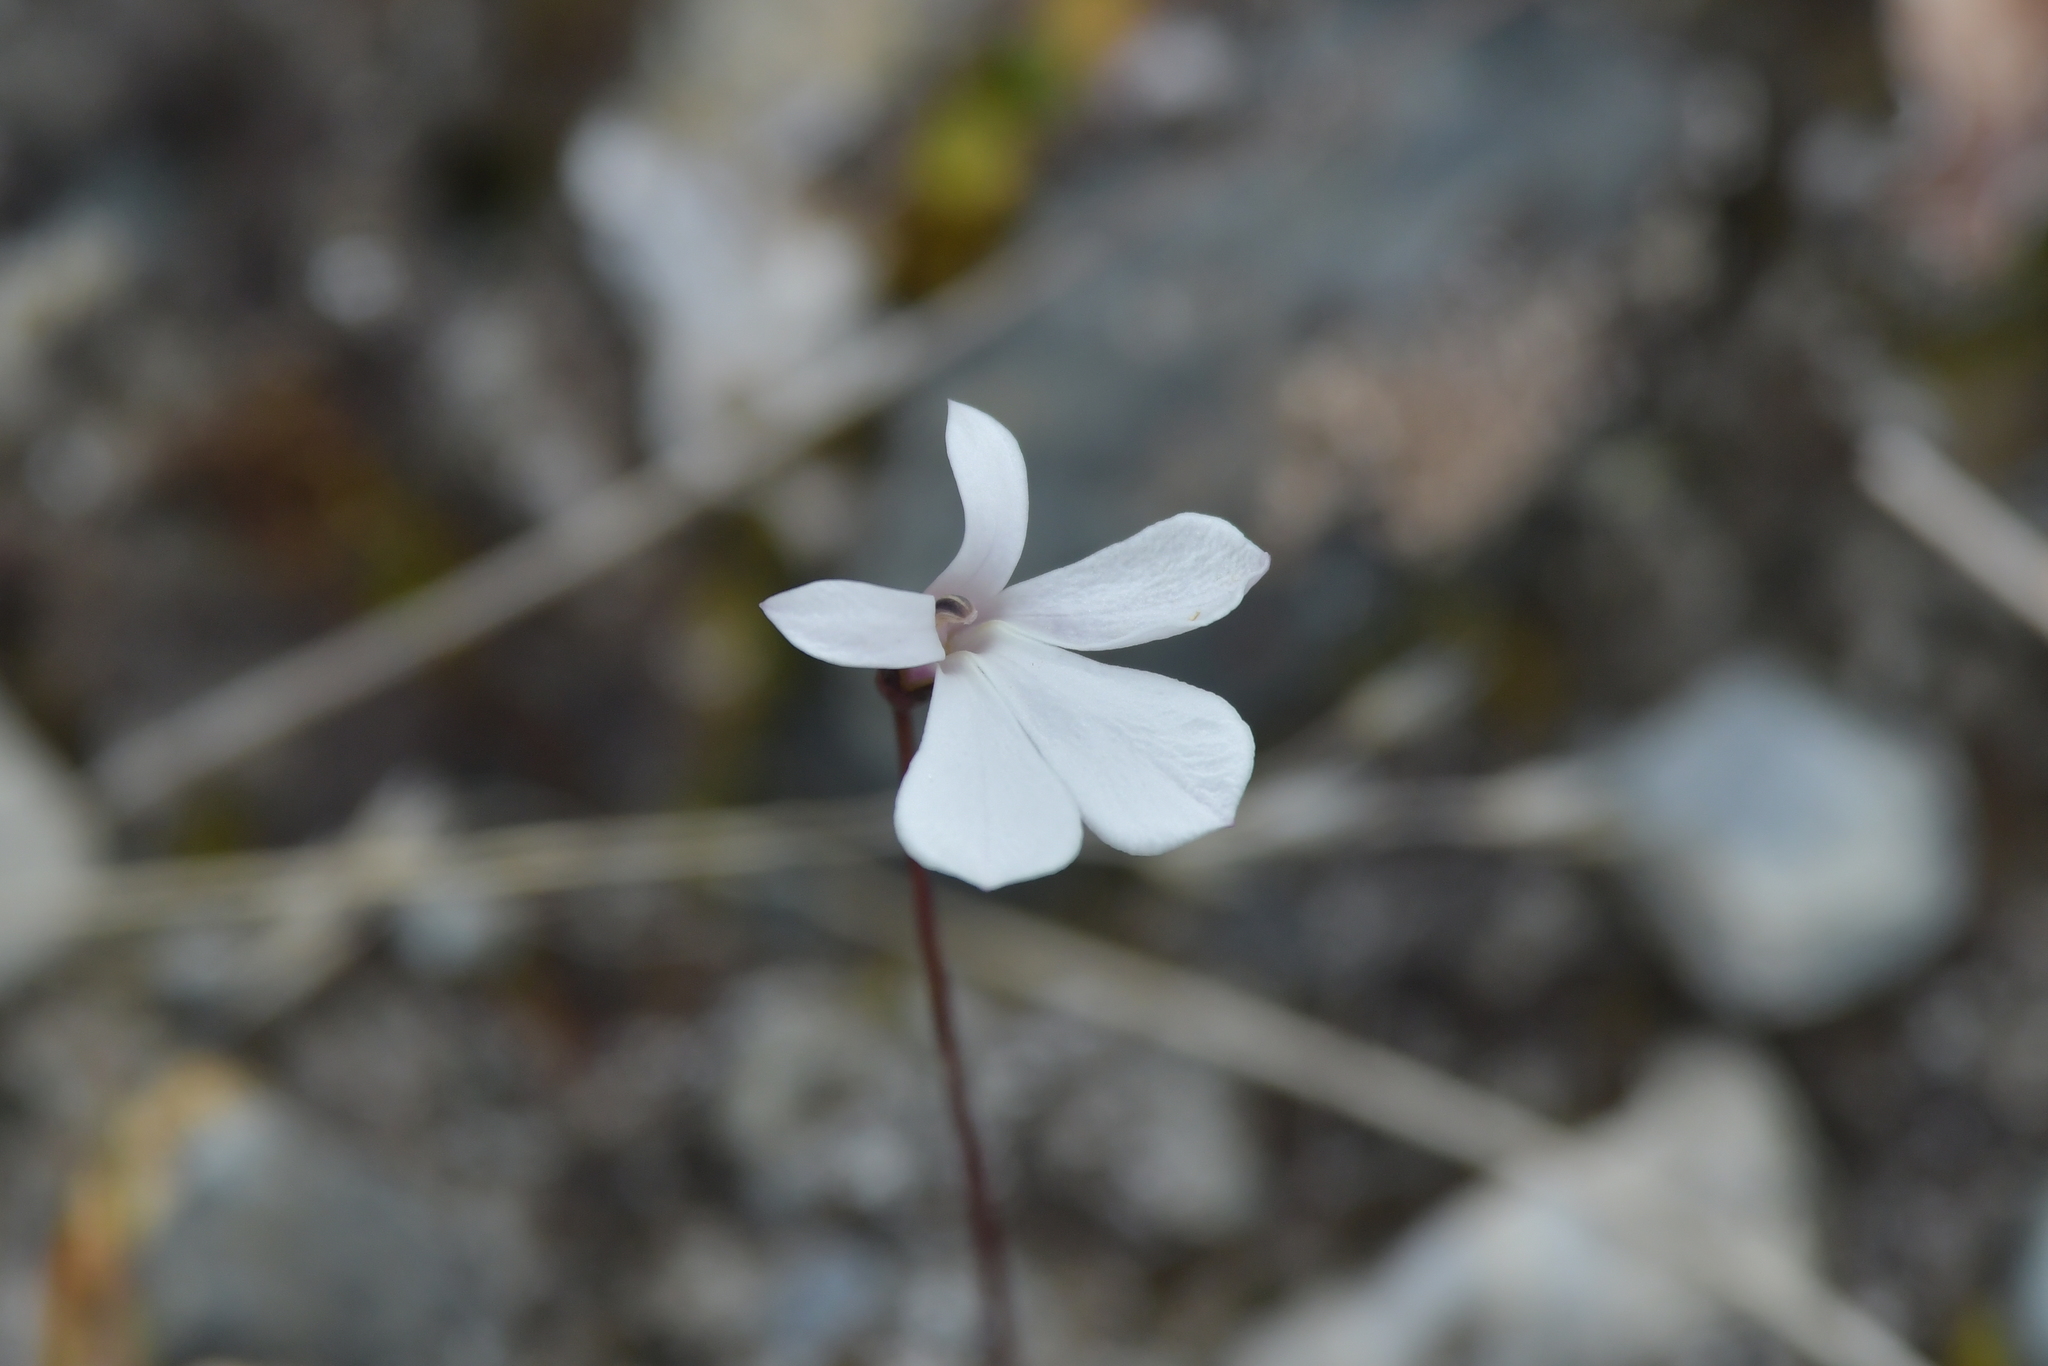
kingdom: Plantae
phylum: Tracheophyta
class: Magnoliopsida
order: Asterales
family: Campanulaceae
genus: Lobelia
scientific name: Lobelia angulata
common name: Lawn lobelia
